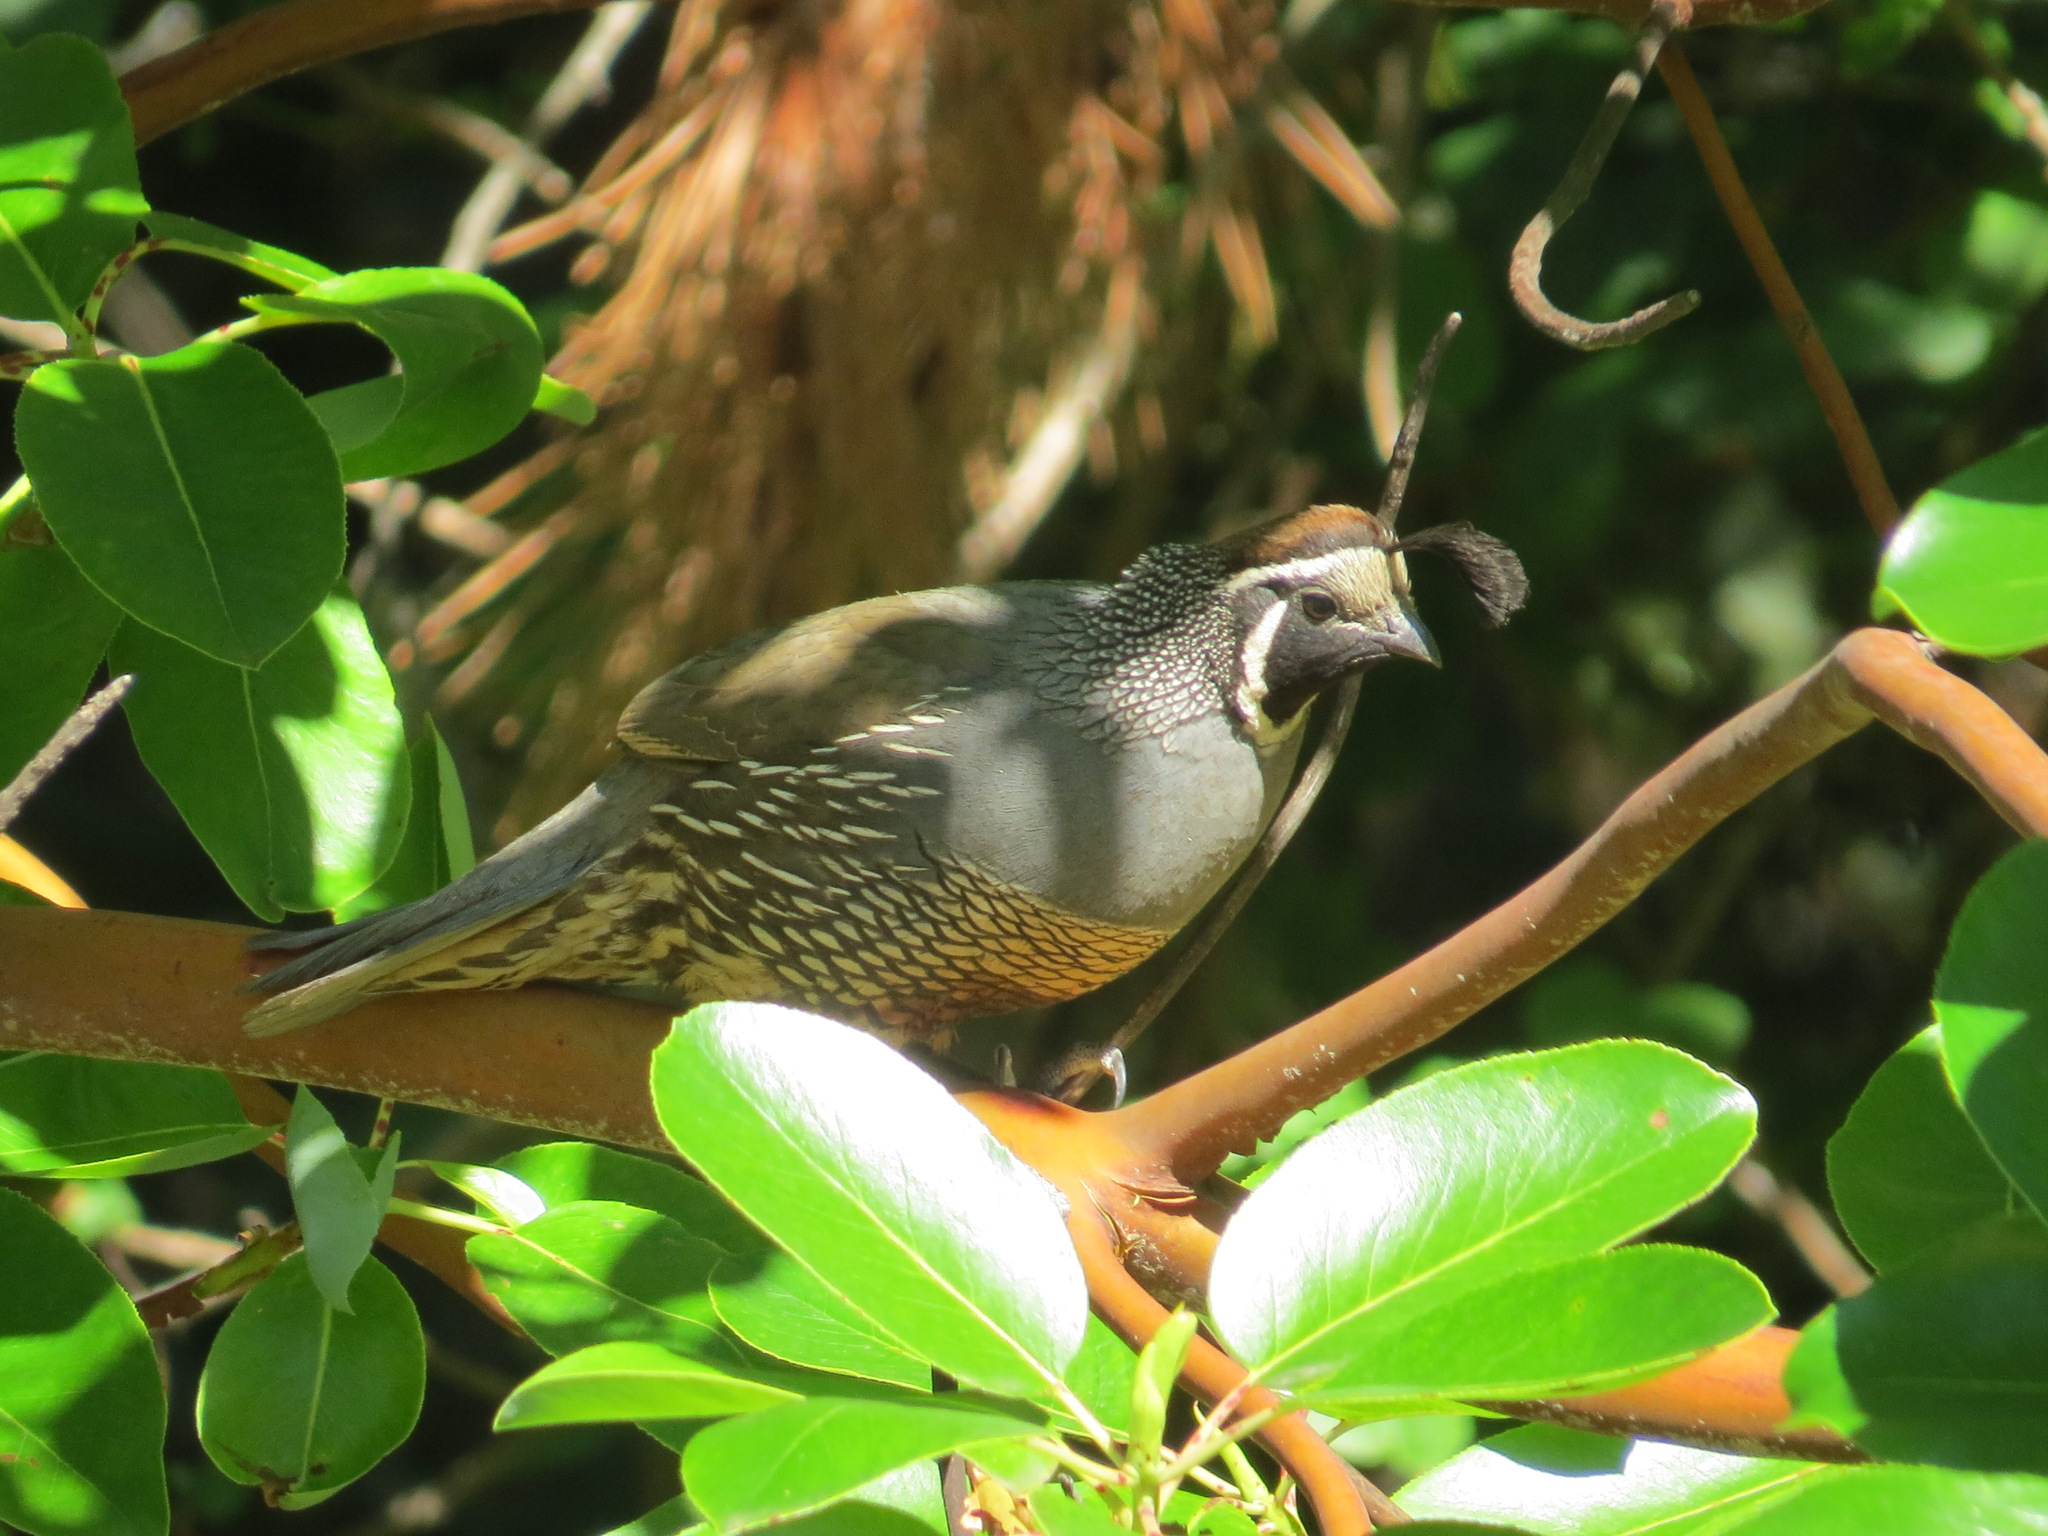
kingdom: Animalia
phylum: Chordata
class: Aves
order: Galliformes
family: Odontophoridae
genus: Callipepla
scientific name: Callipepla californica
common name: California quail
